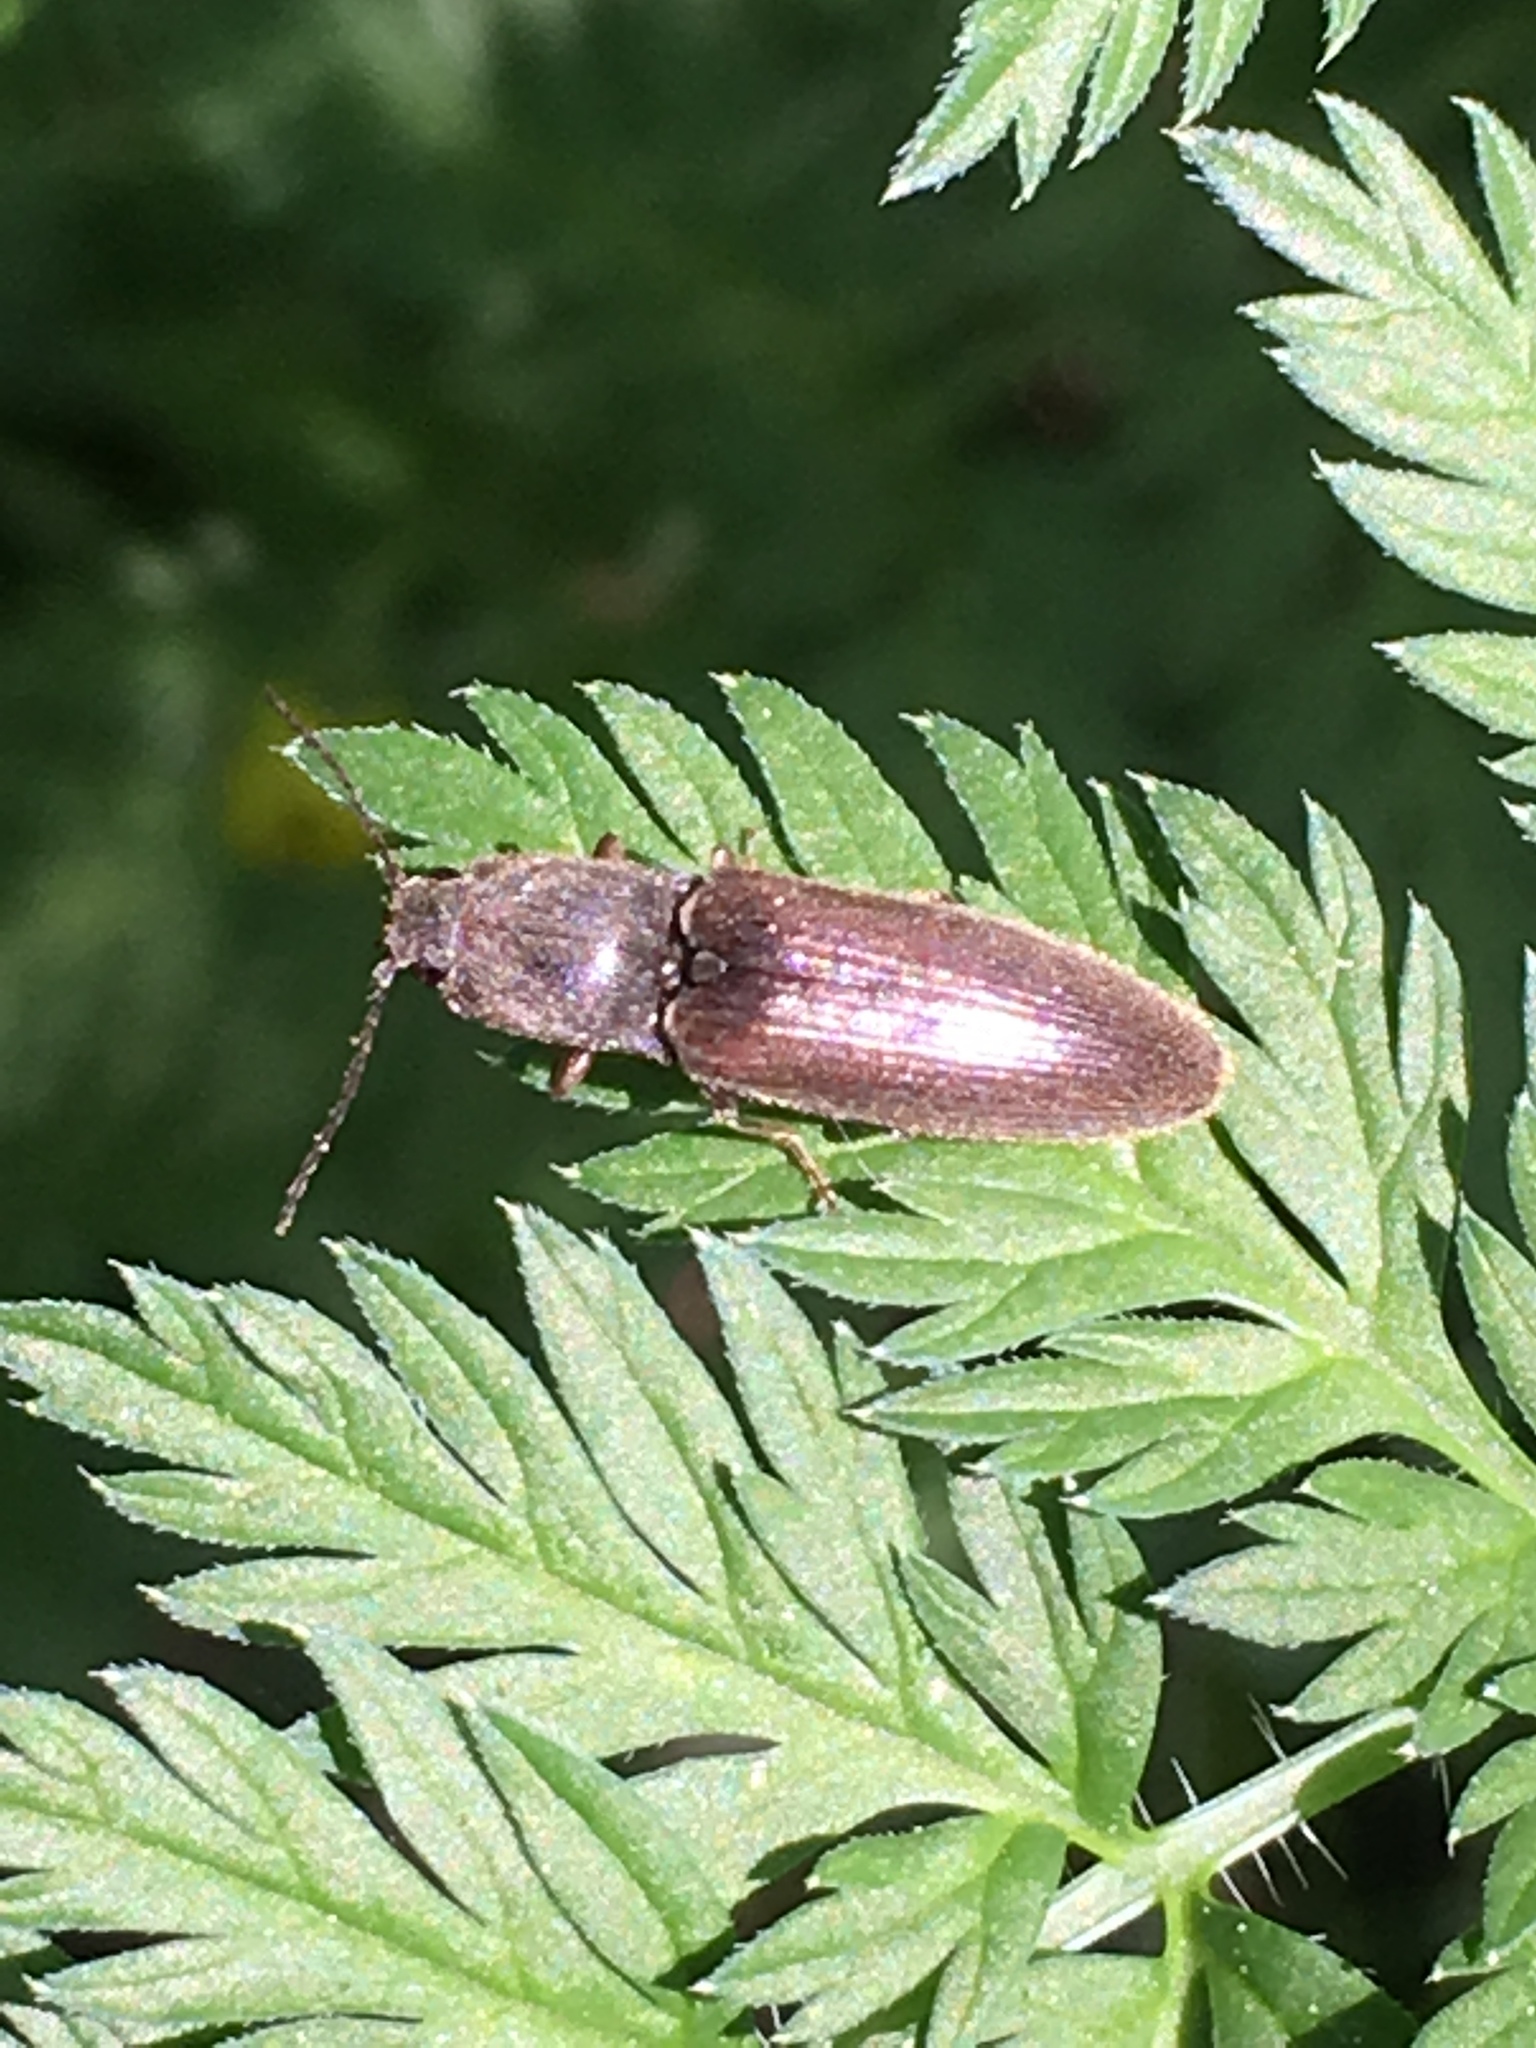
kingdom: Animalia
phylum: Arthropoda
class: Insecta
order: Coleoptera
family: Elateridae
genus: Athous
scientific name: Athous haemorrhoidalis
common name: Red-brown click beetle
